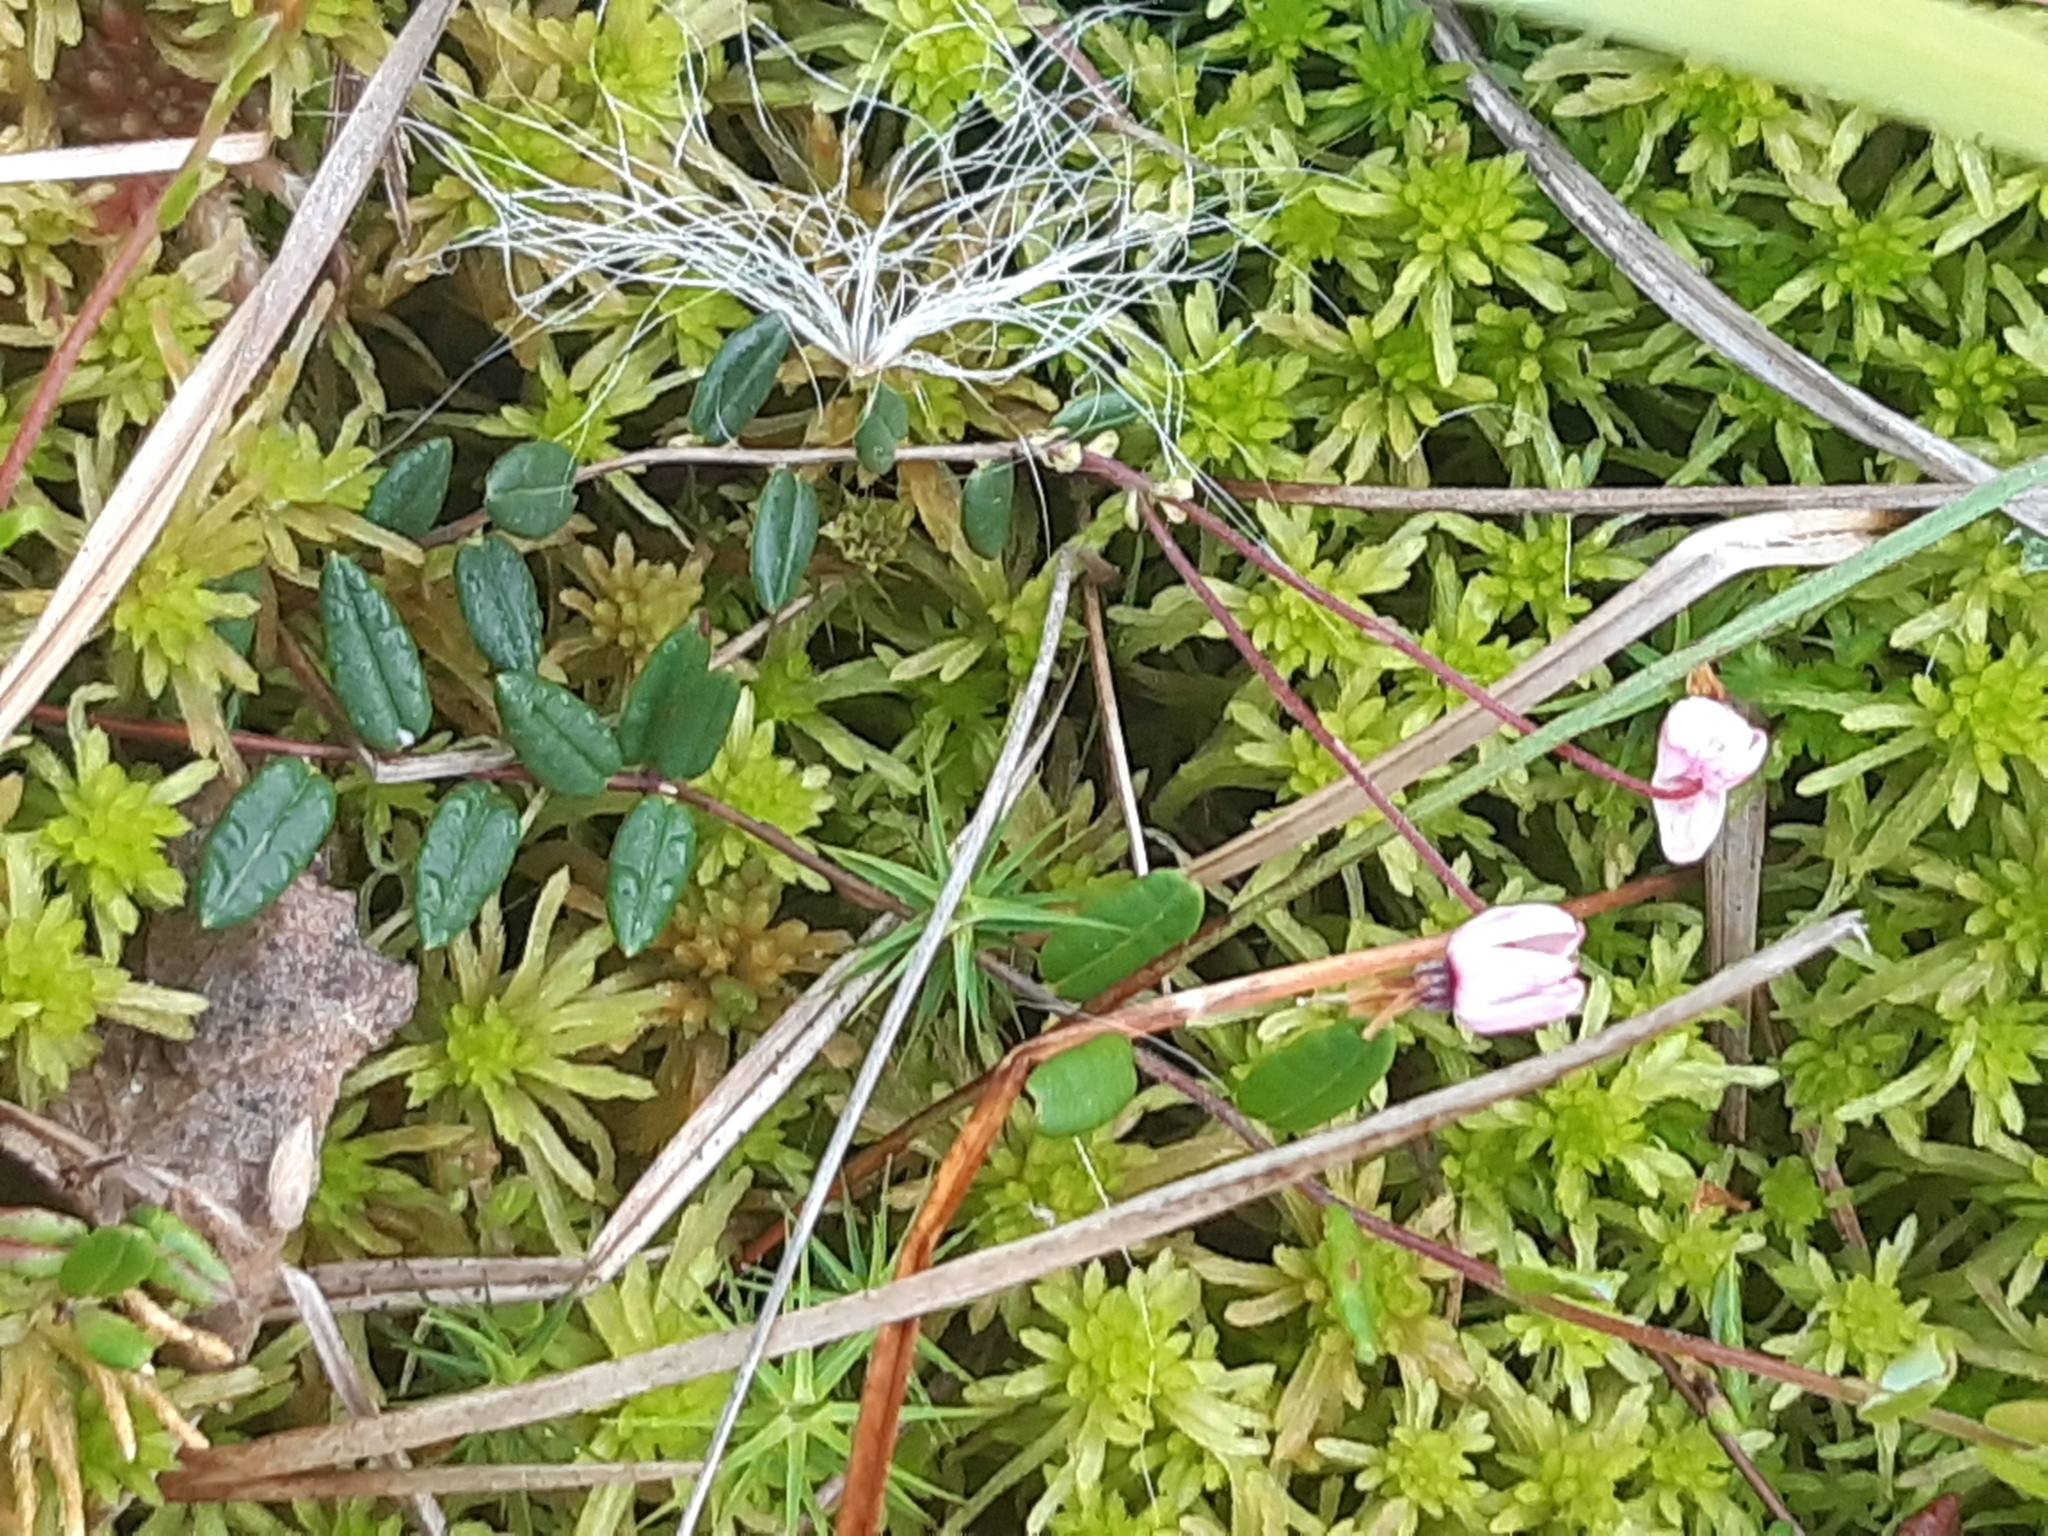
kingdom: Plantae
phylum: Tracheophyta
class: Magnoliopsida
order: Ericales
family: Ericaceae
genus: Vaccinium
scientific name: Vaccinium oxycoccos
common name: Cranberry
